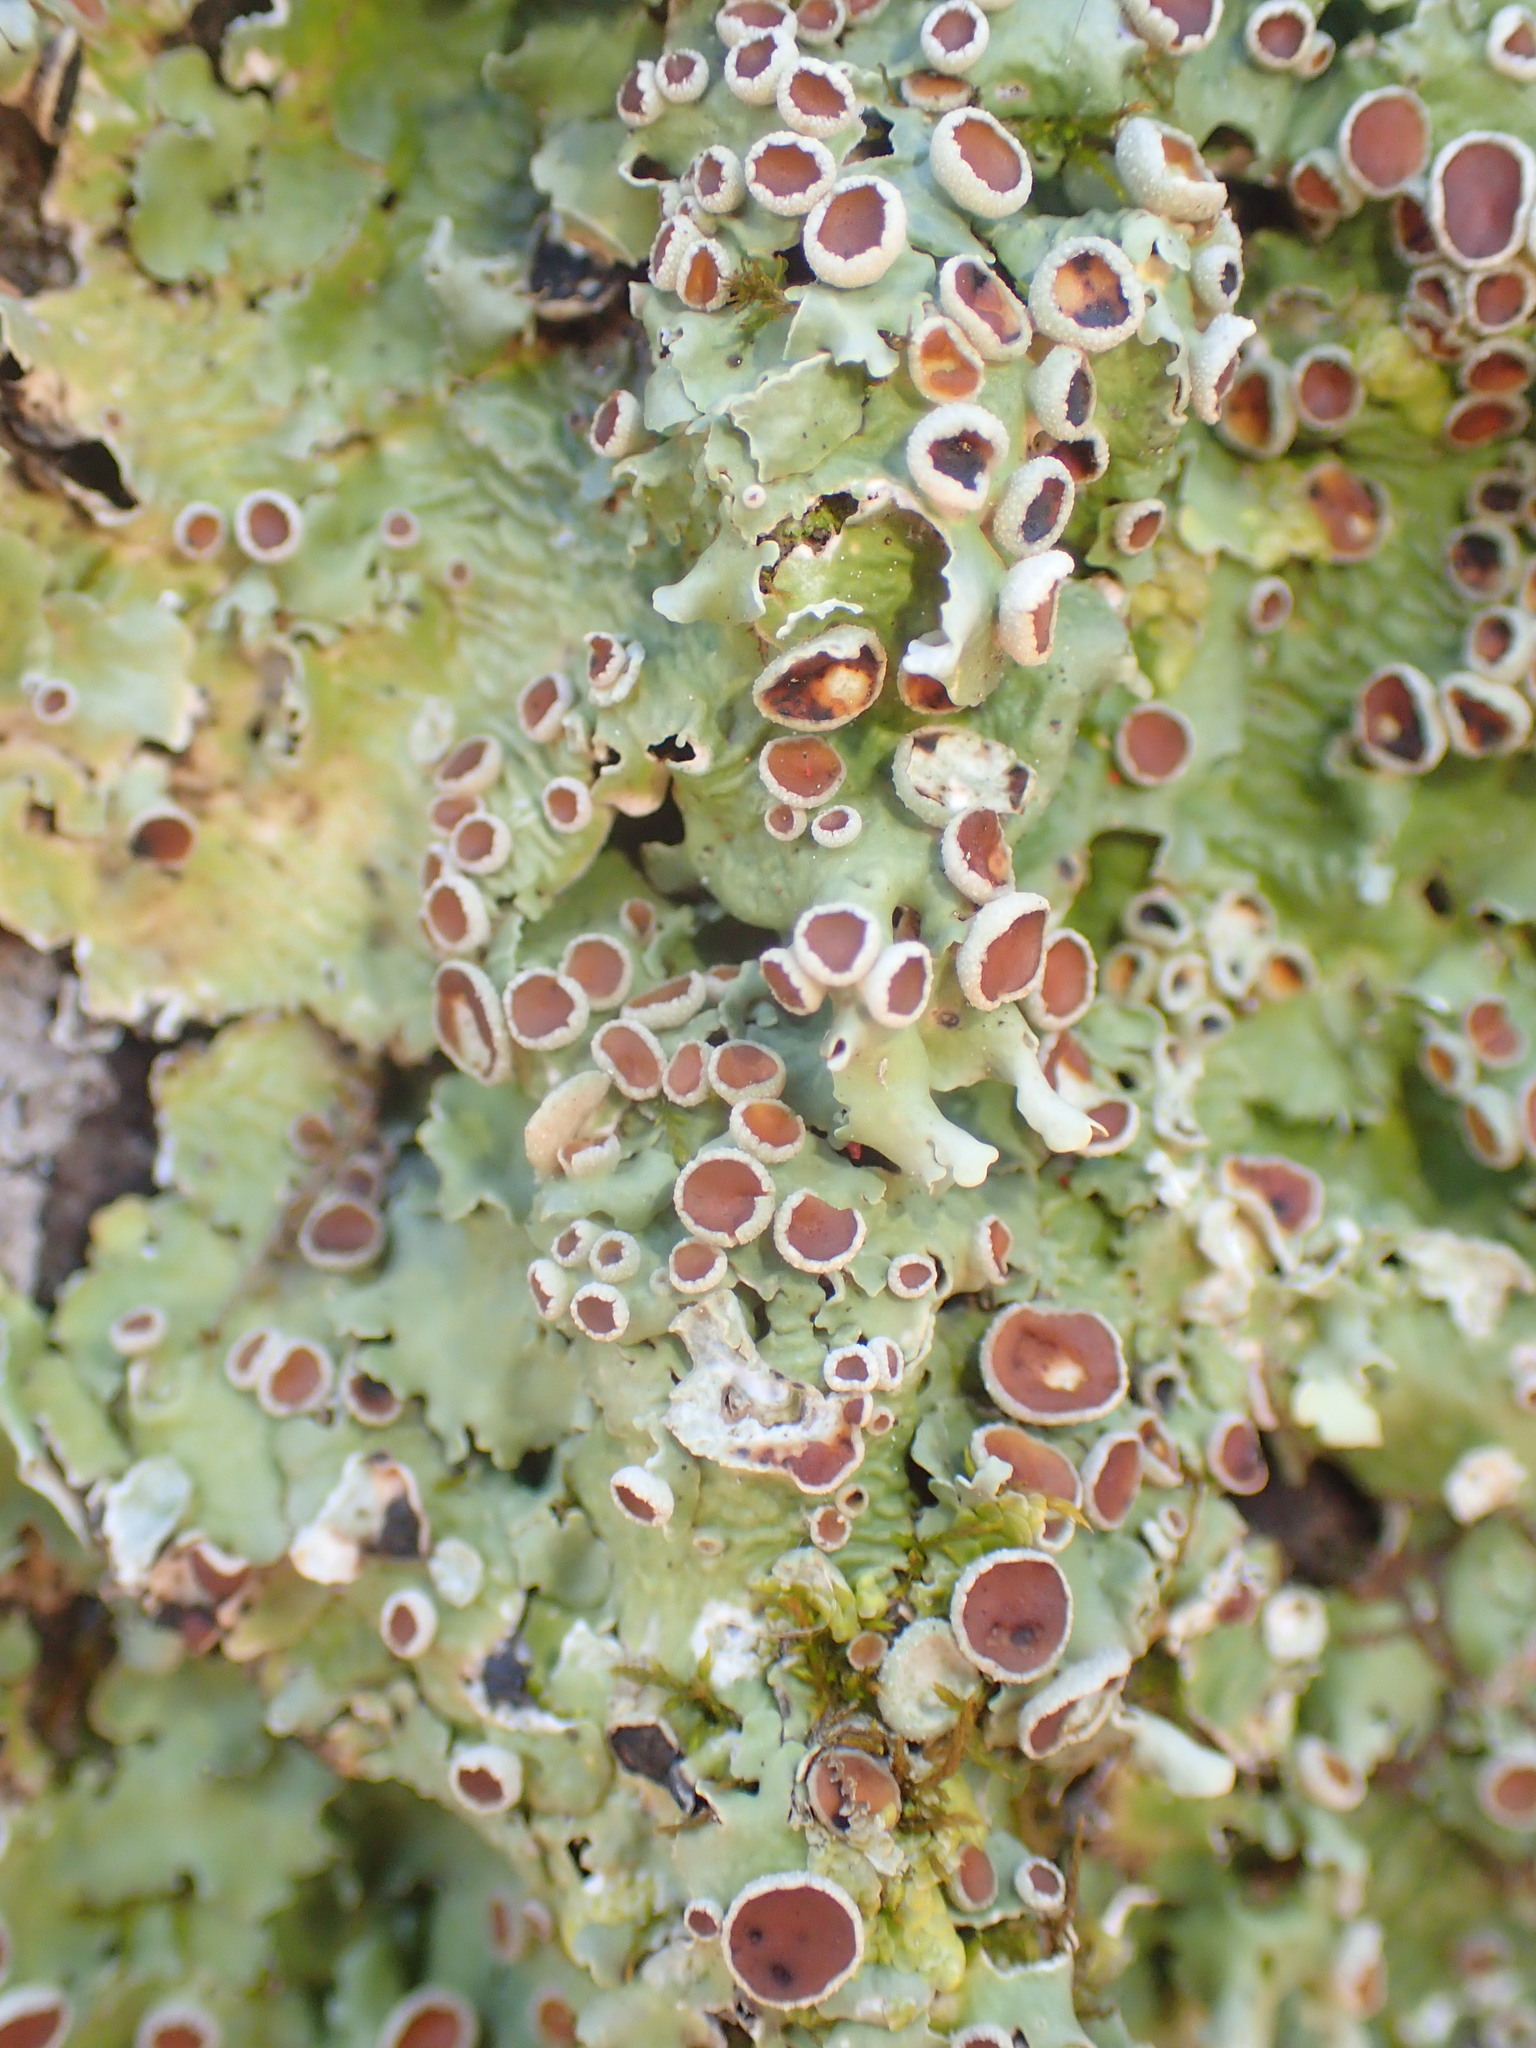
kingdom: Fungi
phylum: Ascomycota
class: Lecanoromycetes
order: Peltigerales
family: Lobariaceae
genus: Ricasolia
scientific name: Ricasolia quercizans
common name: Smooth lungwort
